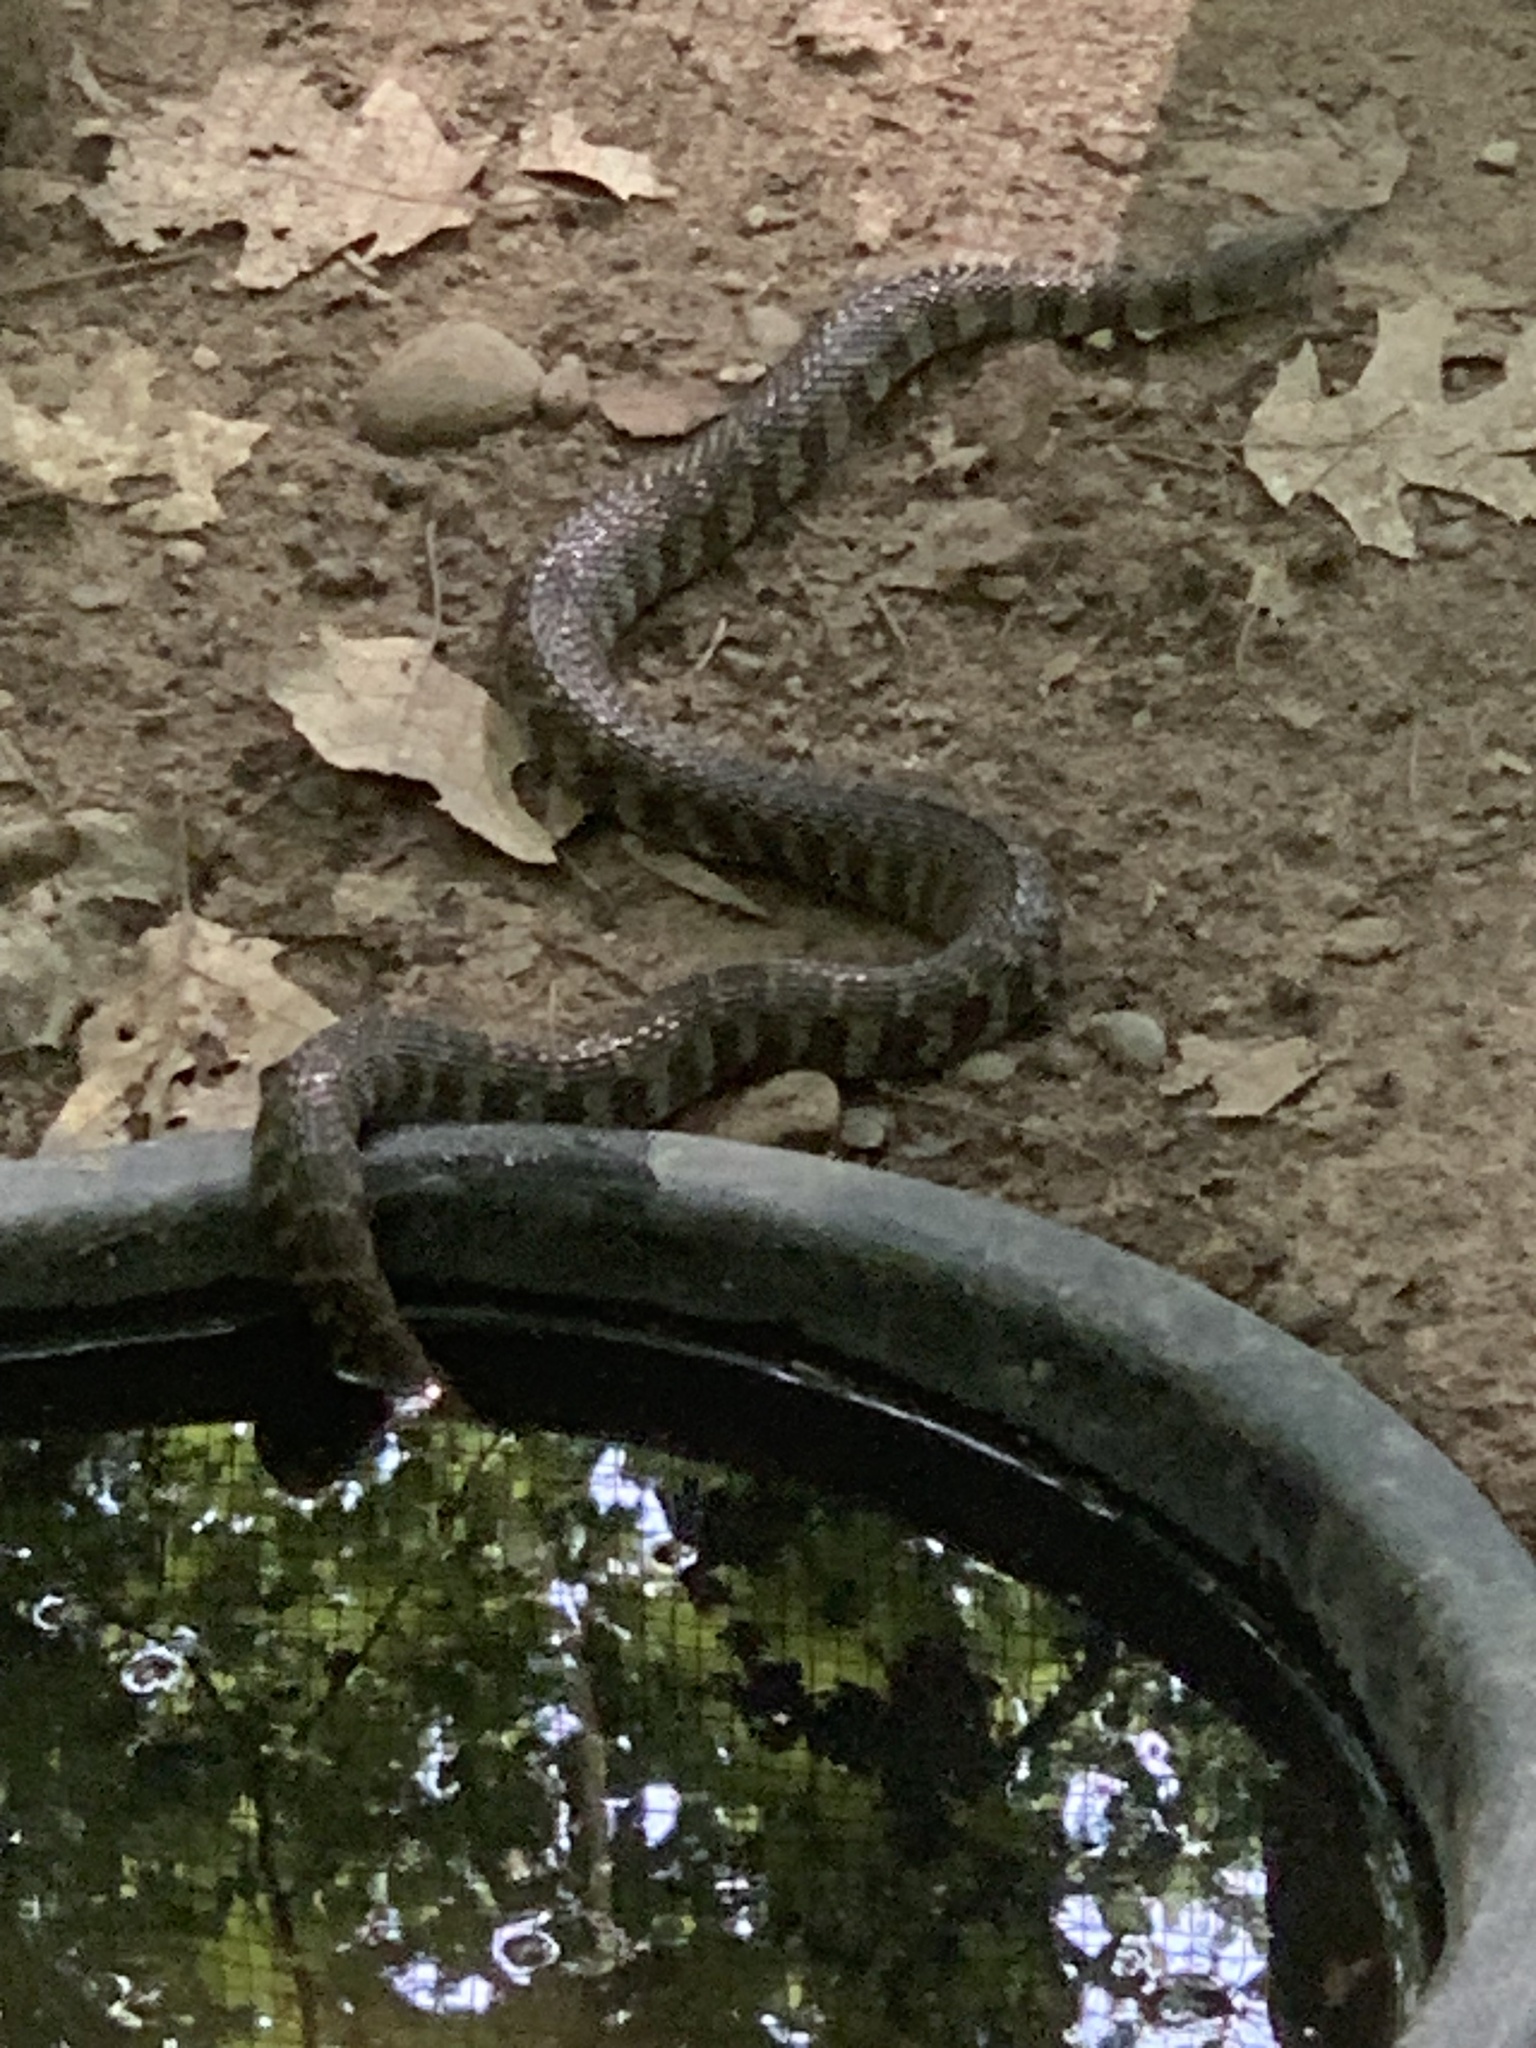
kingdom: Animalia
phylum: Chordata
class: Squamata
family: Colubridae
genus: Nerodia
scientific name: Nerodia sipedon
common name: Northern water snake
